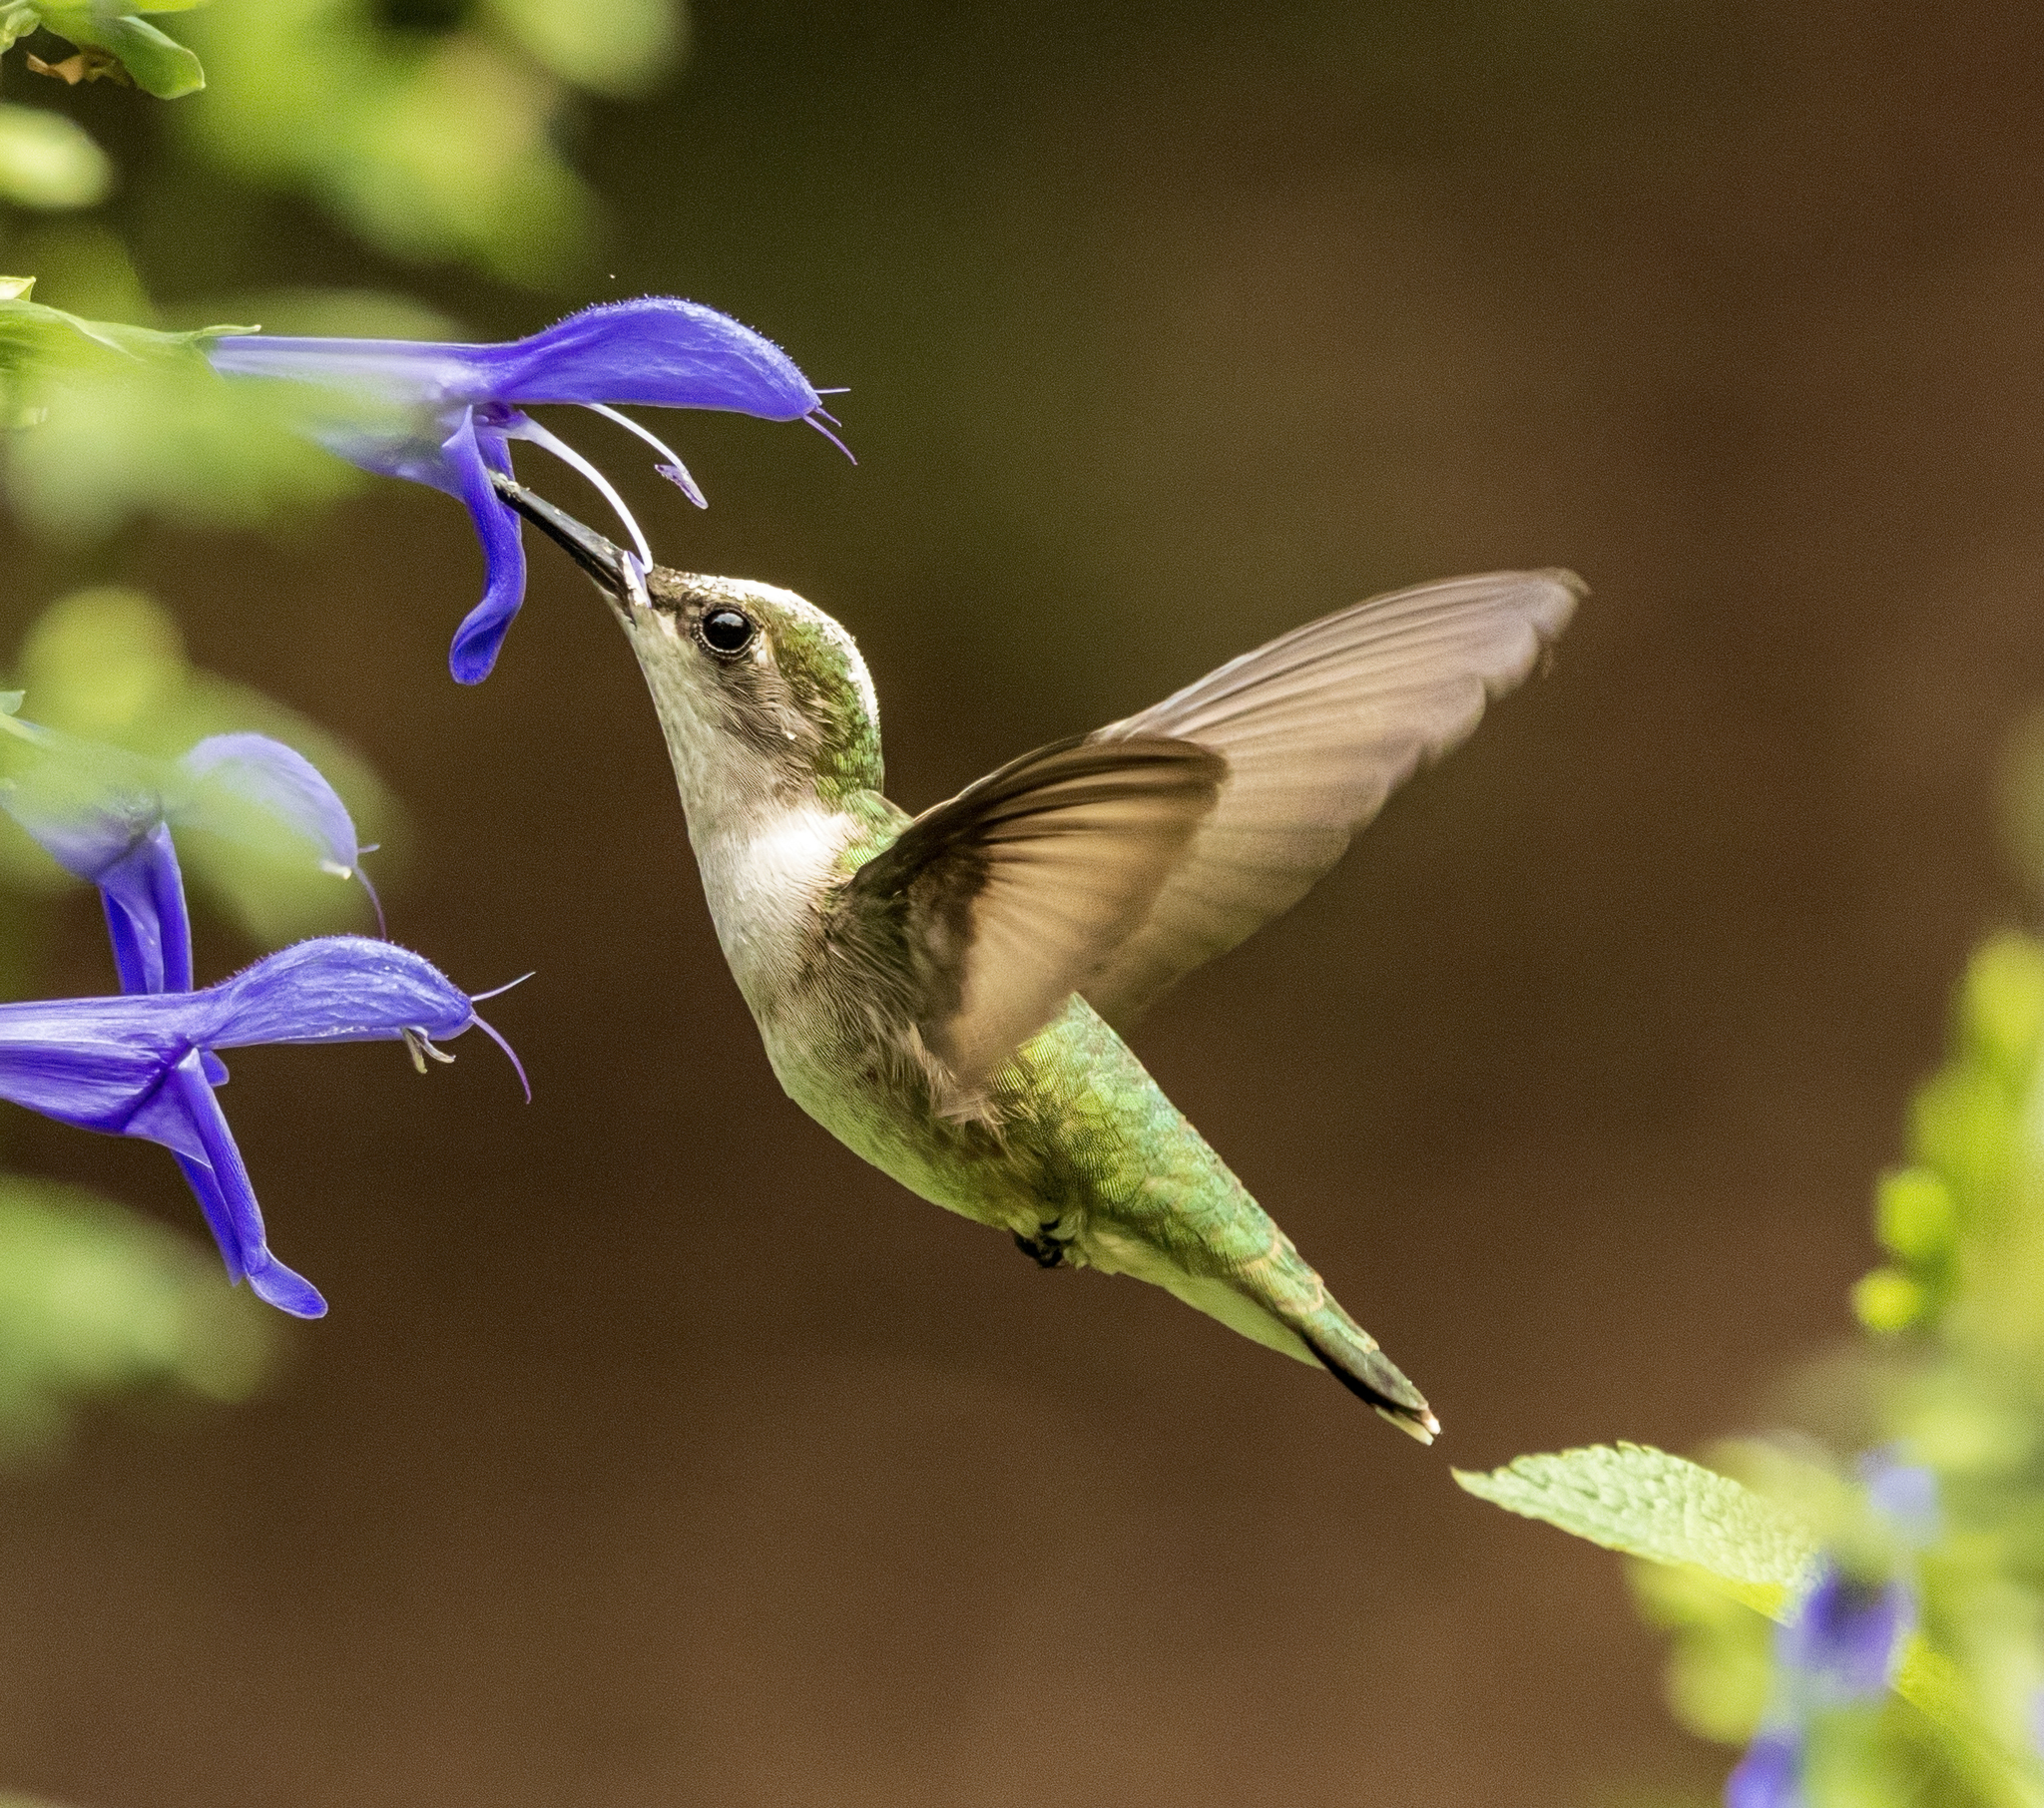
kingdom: Animalia
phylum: Chordata
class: Aves
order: Apodiformes
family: Trochilidae
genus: Archilochus
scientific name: Archilochus colubris
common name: Ruby-throated hummingbird
